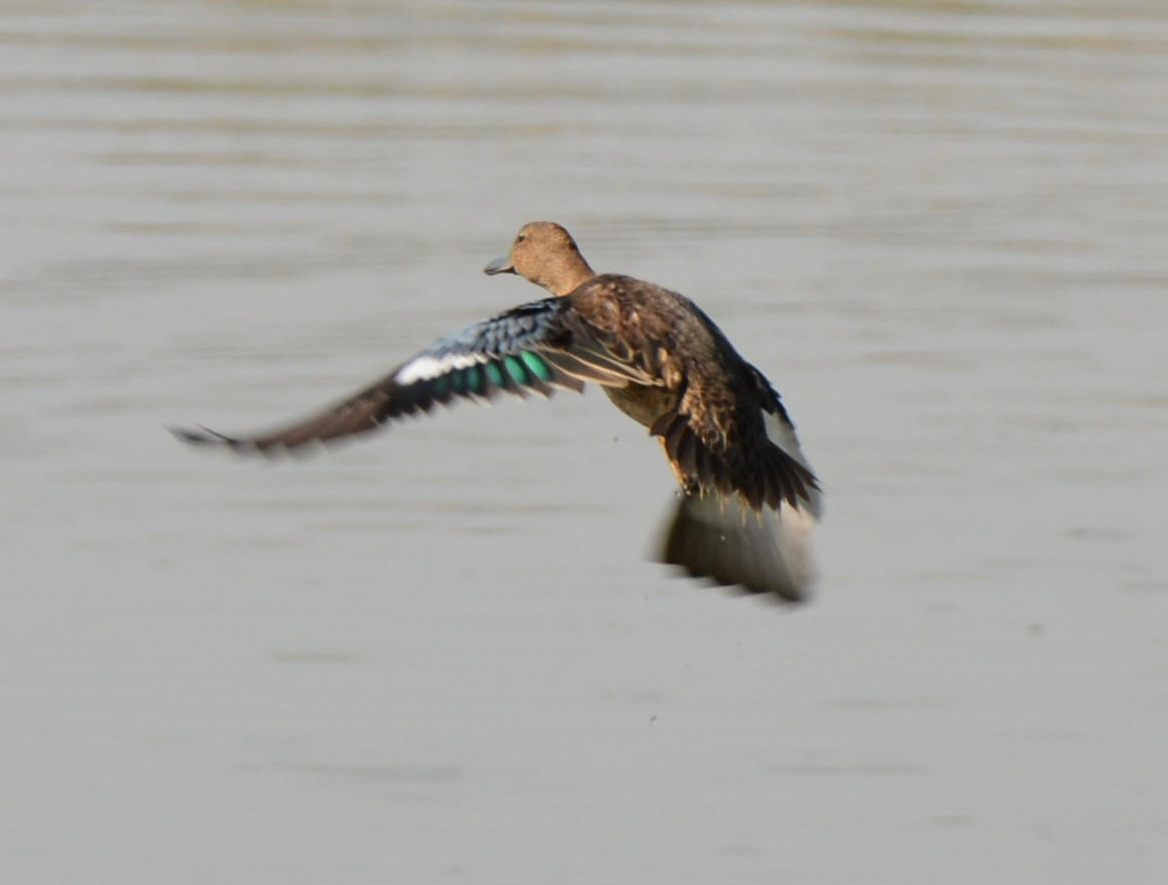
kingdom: Animalia
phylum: Chordata
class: Aves
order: Anseriformes
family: Anatidae
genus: Spatula
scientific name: Spatula cyanoptera
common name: Cinnamon teal
